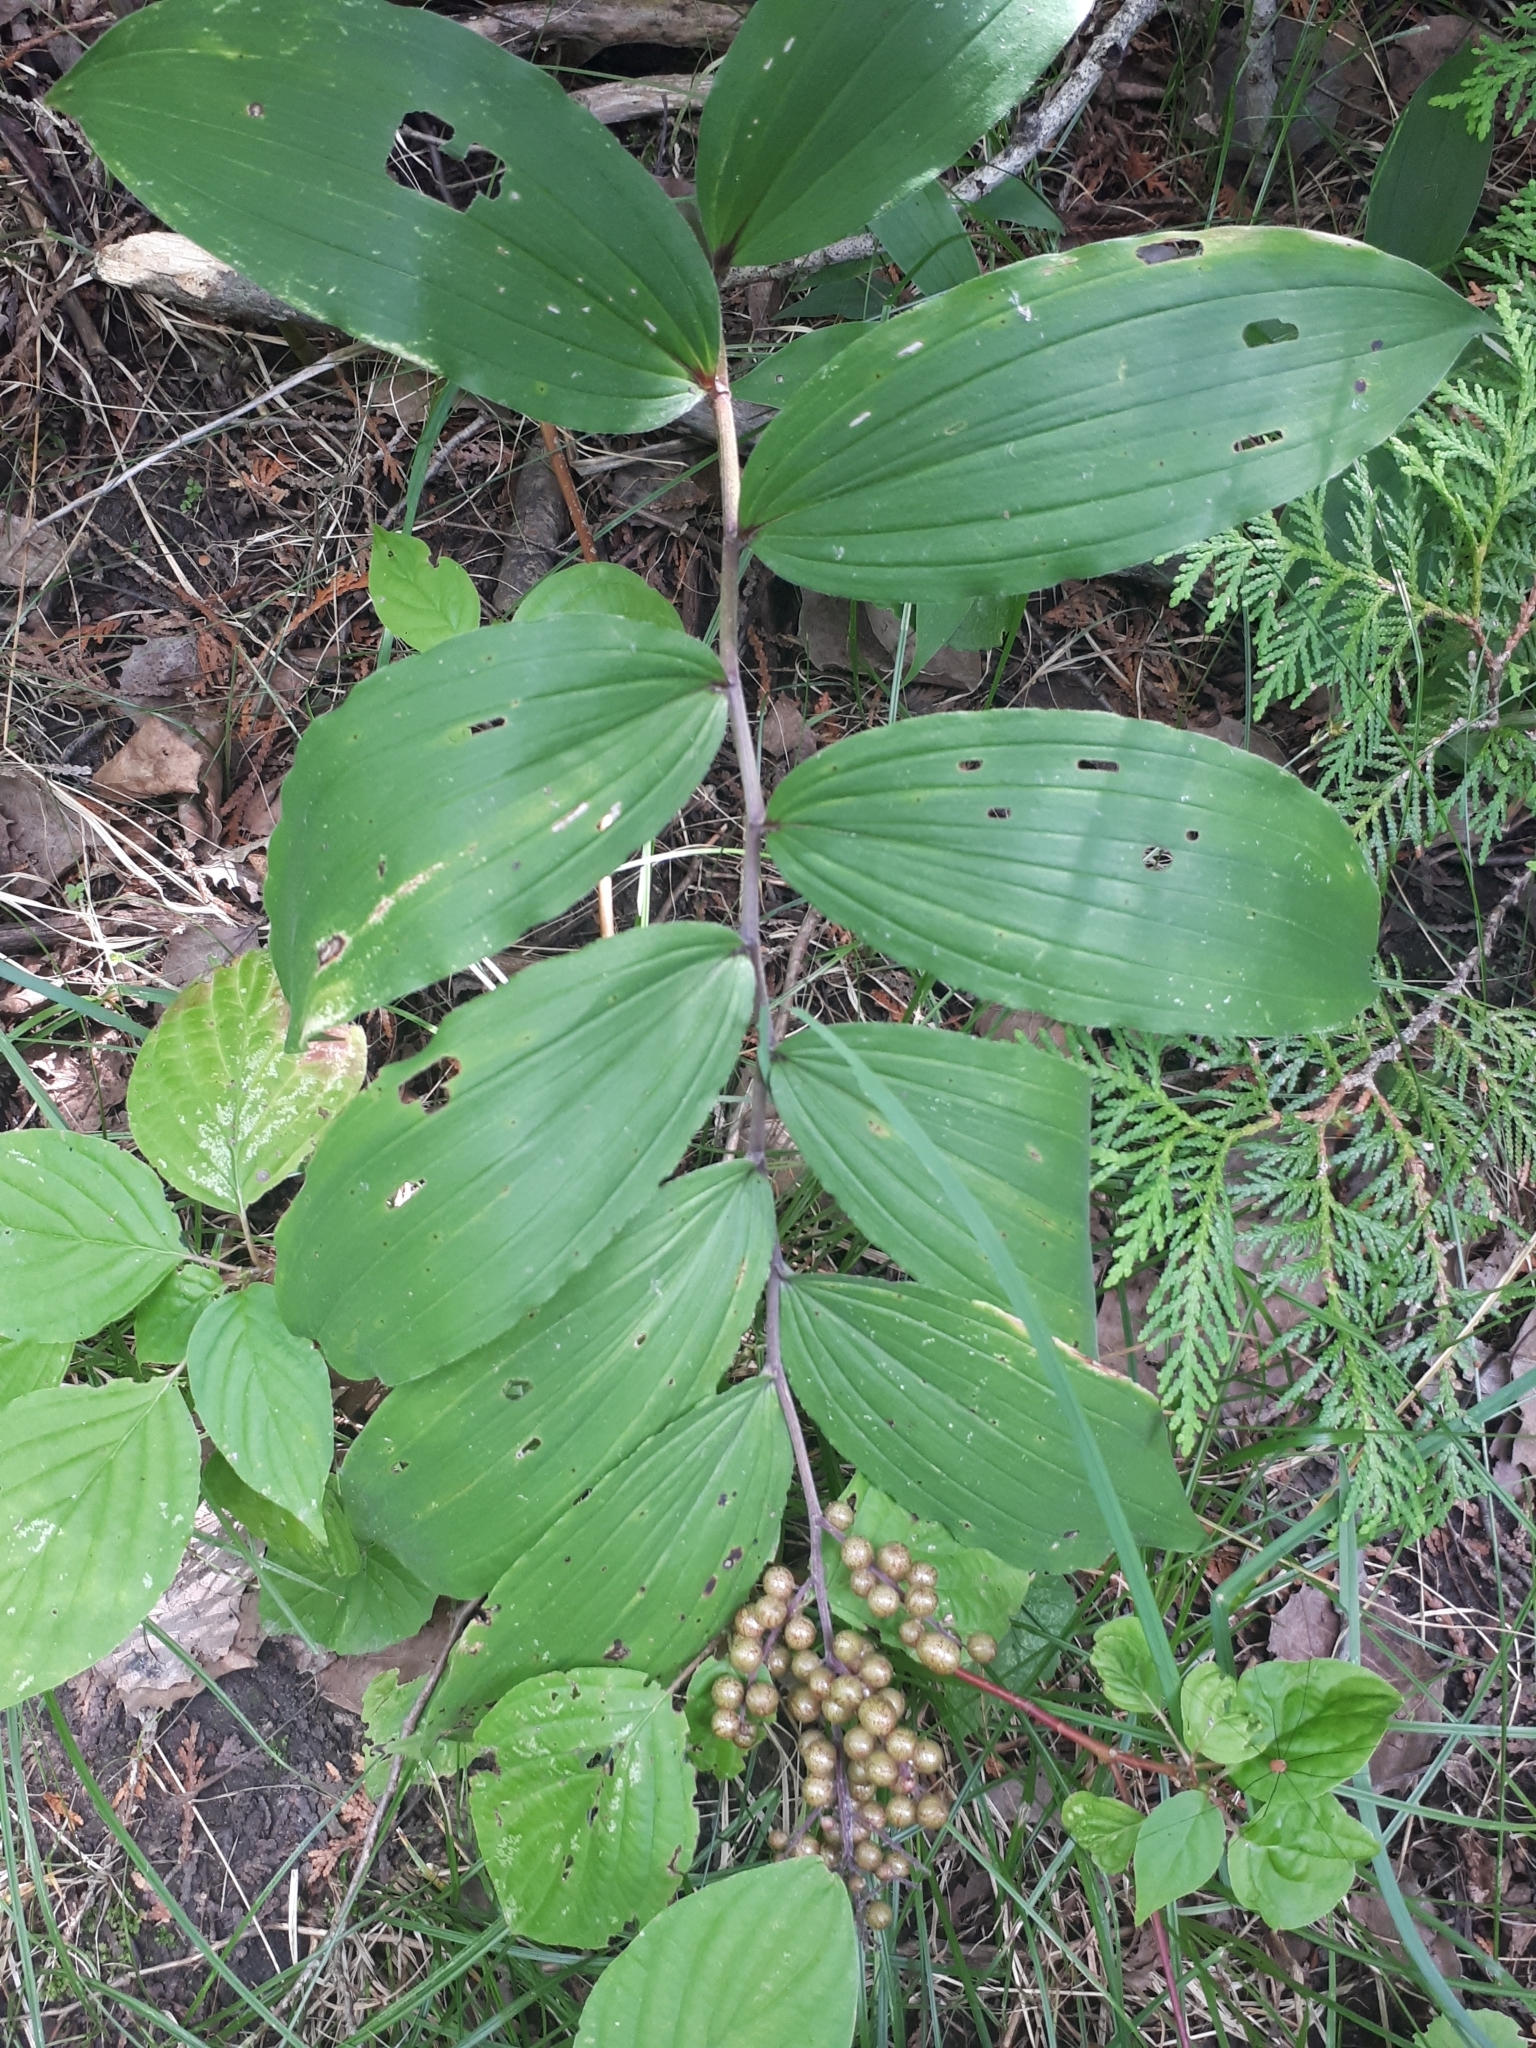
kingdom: Plantae
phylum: Tracheophyta
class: Liliopsida
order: Asparagales
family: Asparagaceae
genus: Maianthemum
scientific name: Maianthemum racemosum
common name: False spikenard
